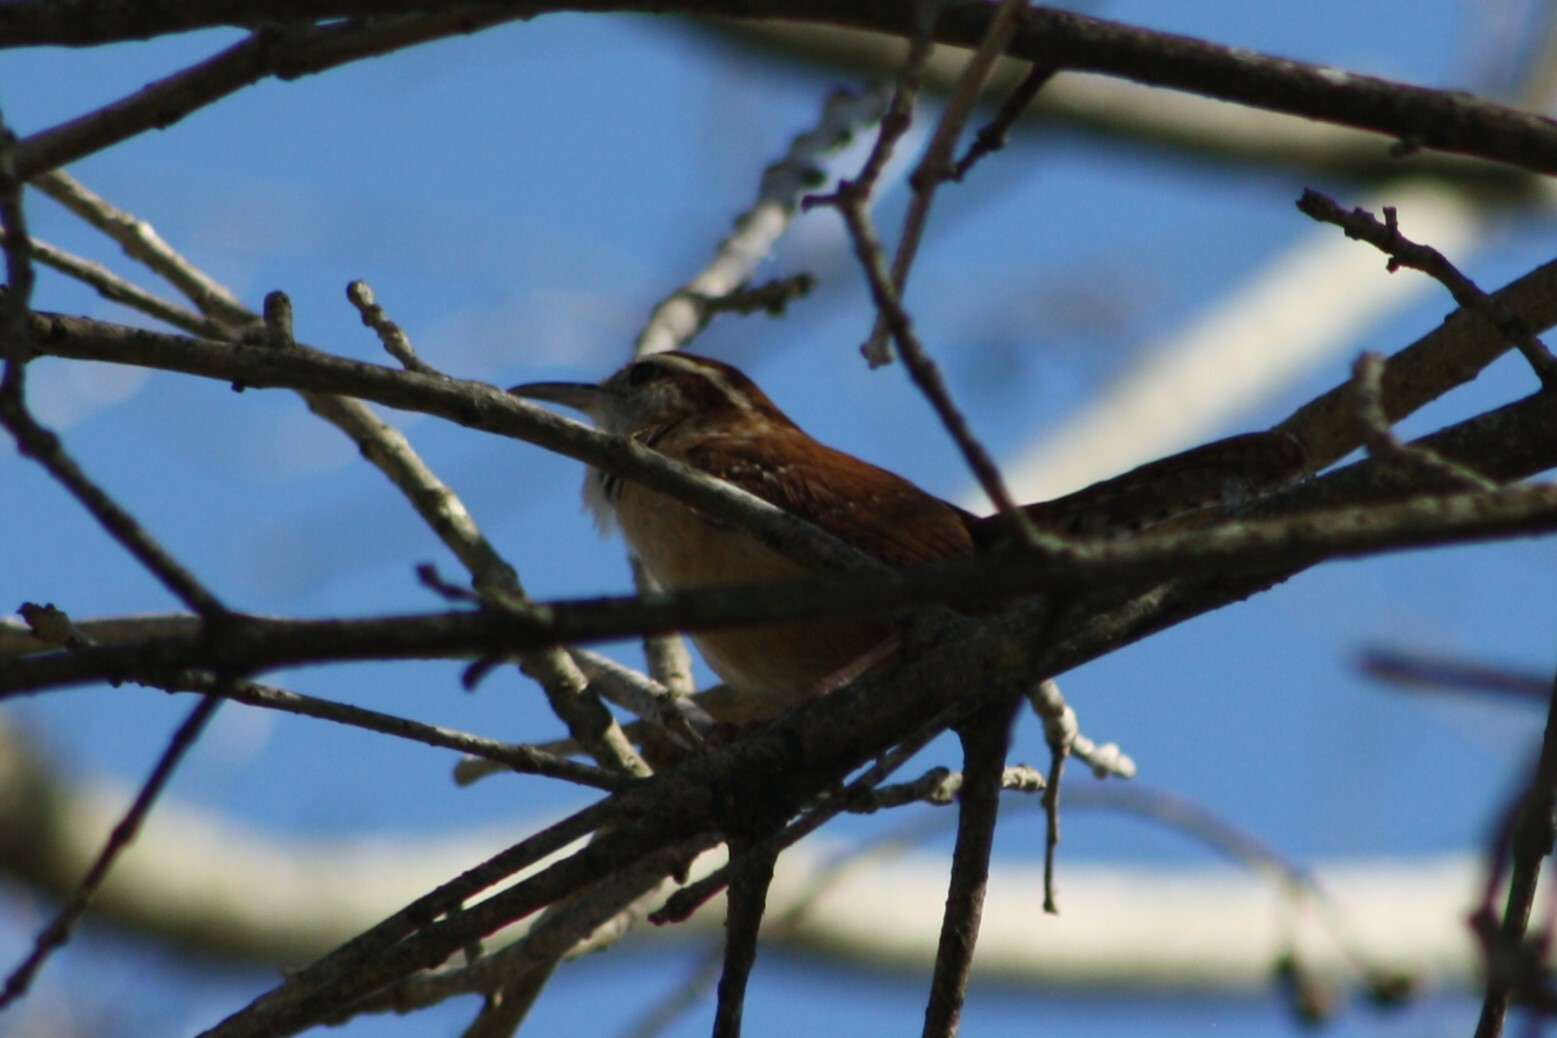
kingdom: Animalia
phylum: Chordata
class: Aves
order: Passeriformes
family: Troglodytidae
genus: Thryothorus
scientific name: Thryothorus ludovicianus
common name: Carolina wren
